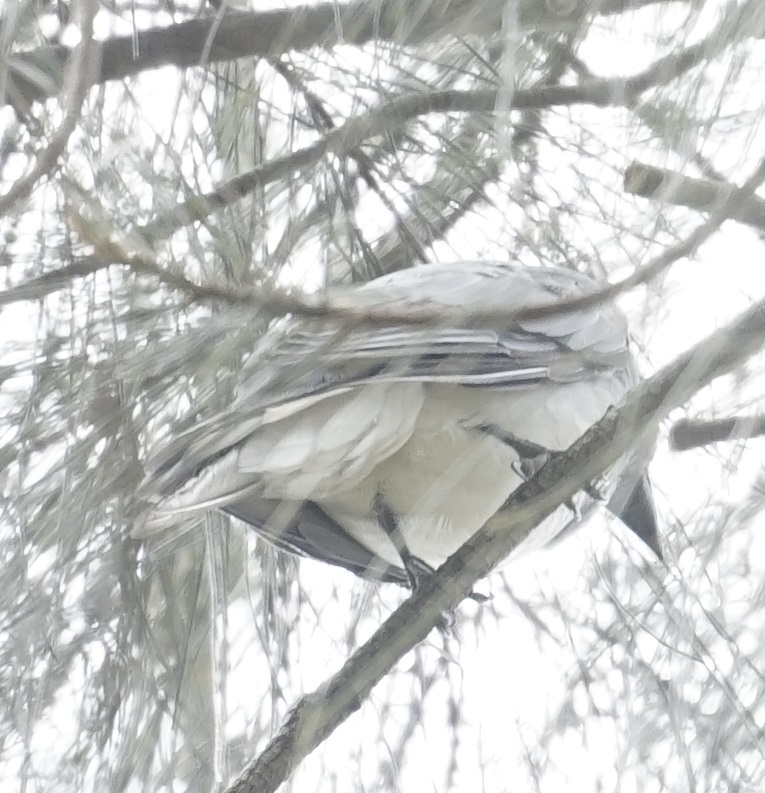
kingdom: Animalia
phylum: Chordata
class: Aves
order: Passeriformes
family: Campephagidae
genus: Coracina
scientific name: Coracina novaehollandiae
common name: Black-faced cuckooshrike
